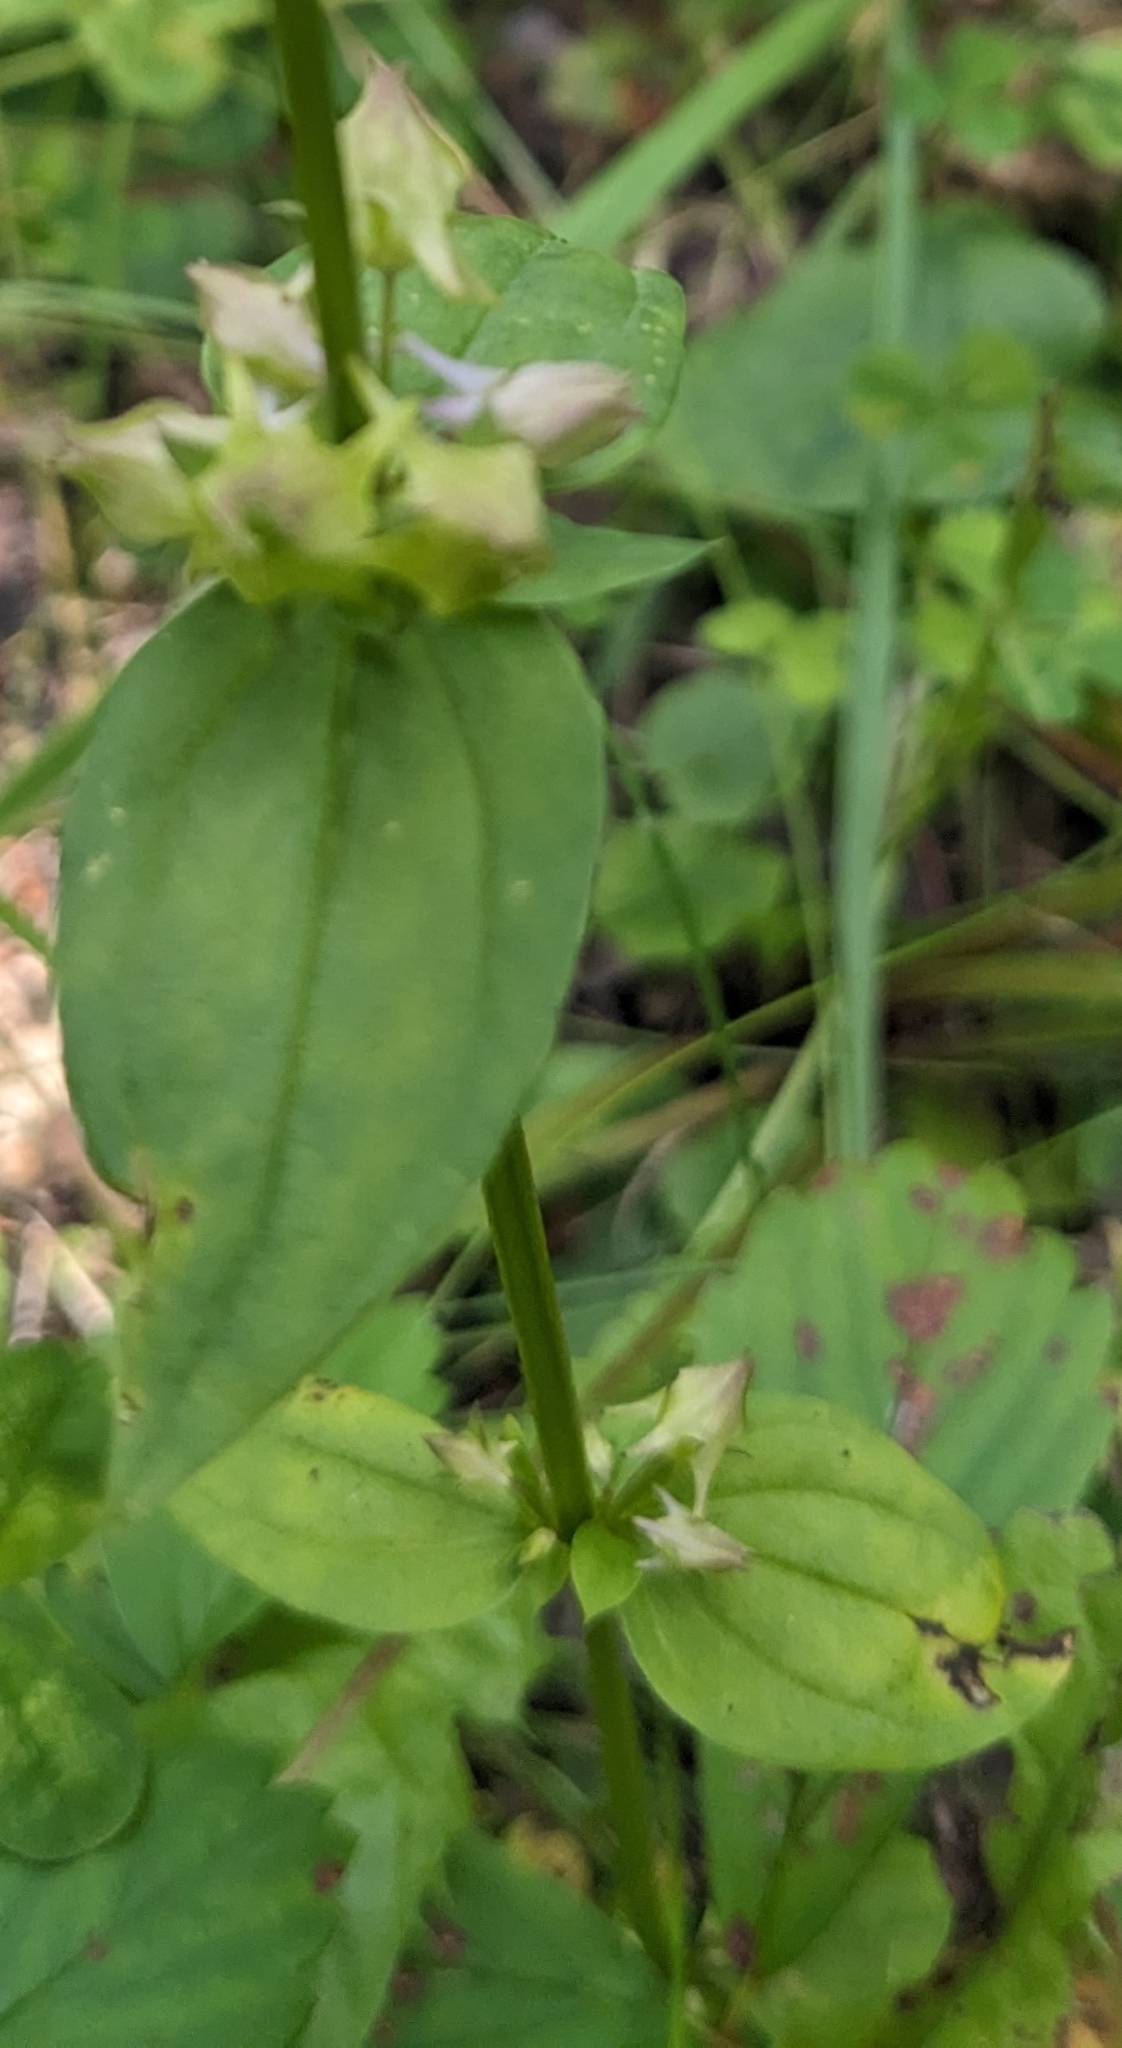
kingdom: Plantae
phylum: Tracheophyta
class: Magnoliopsida
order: Gentianales
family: Gentianaceae
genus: Halenia
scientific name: Halenia deflexa
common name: American spurred gentian
